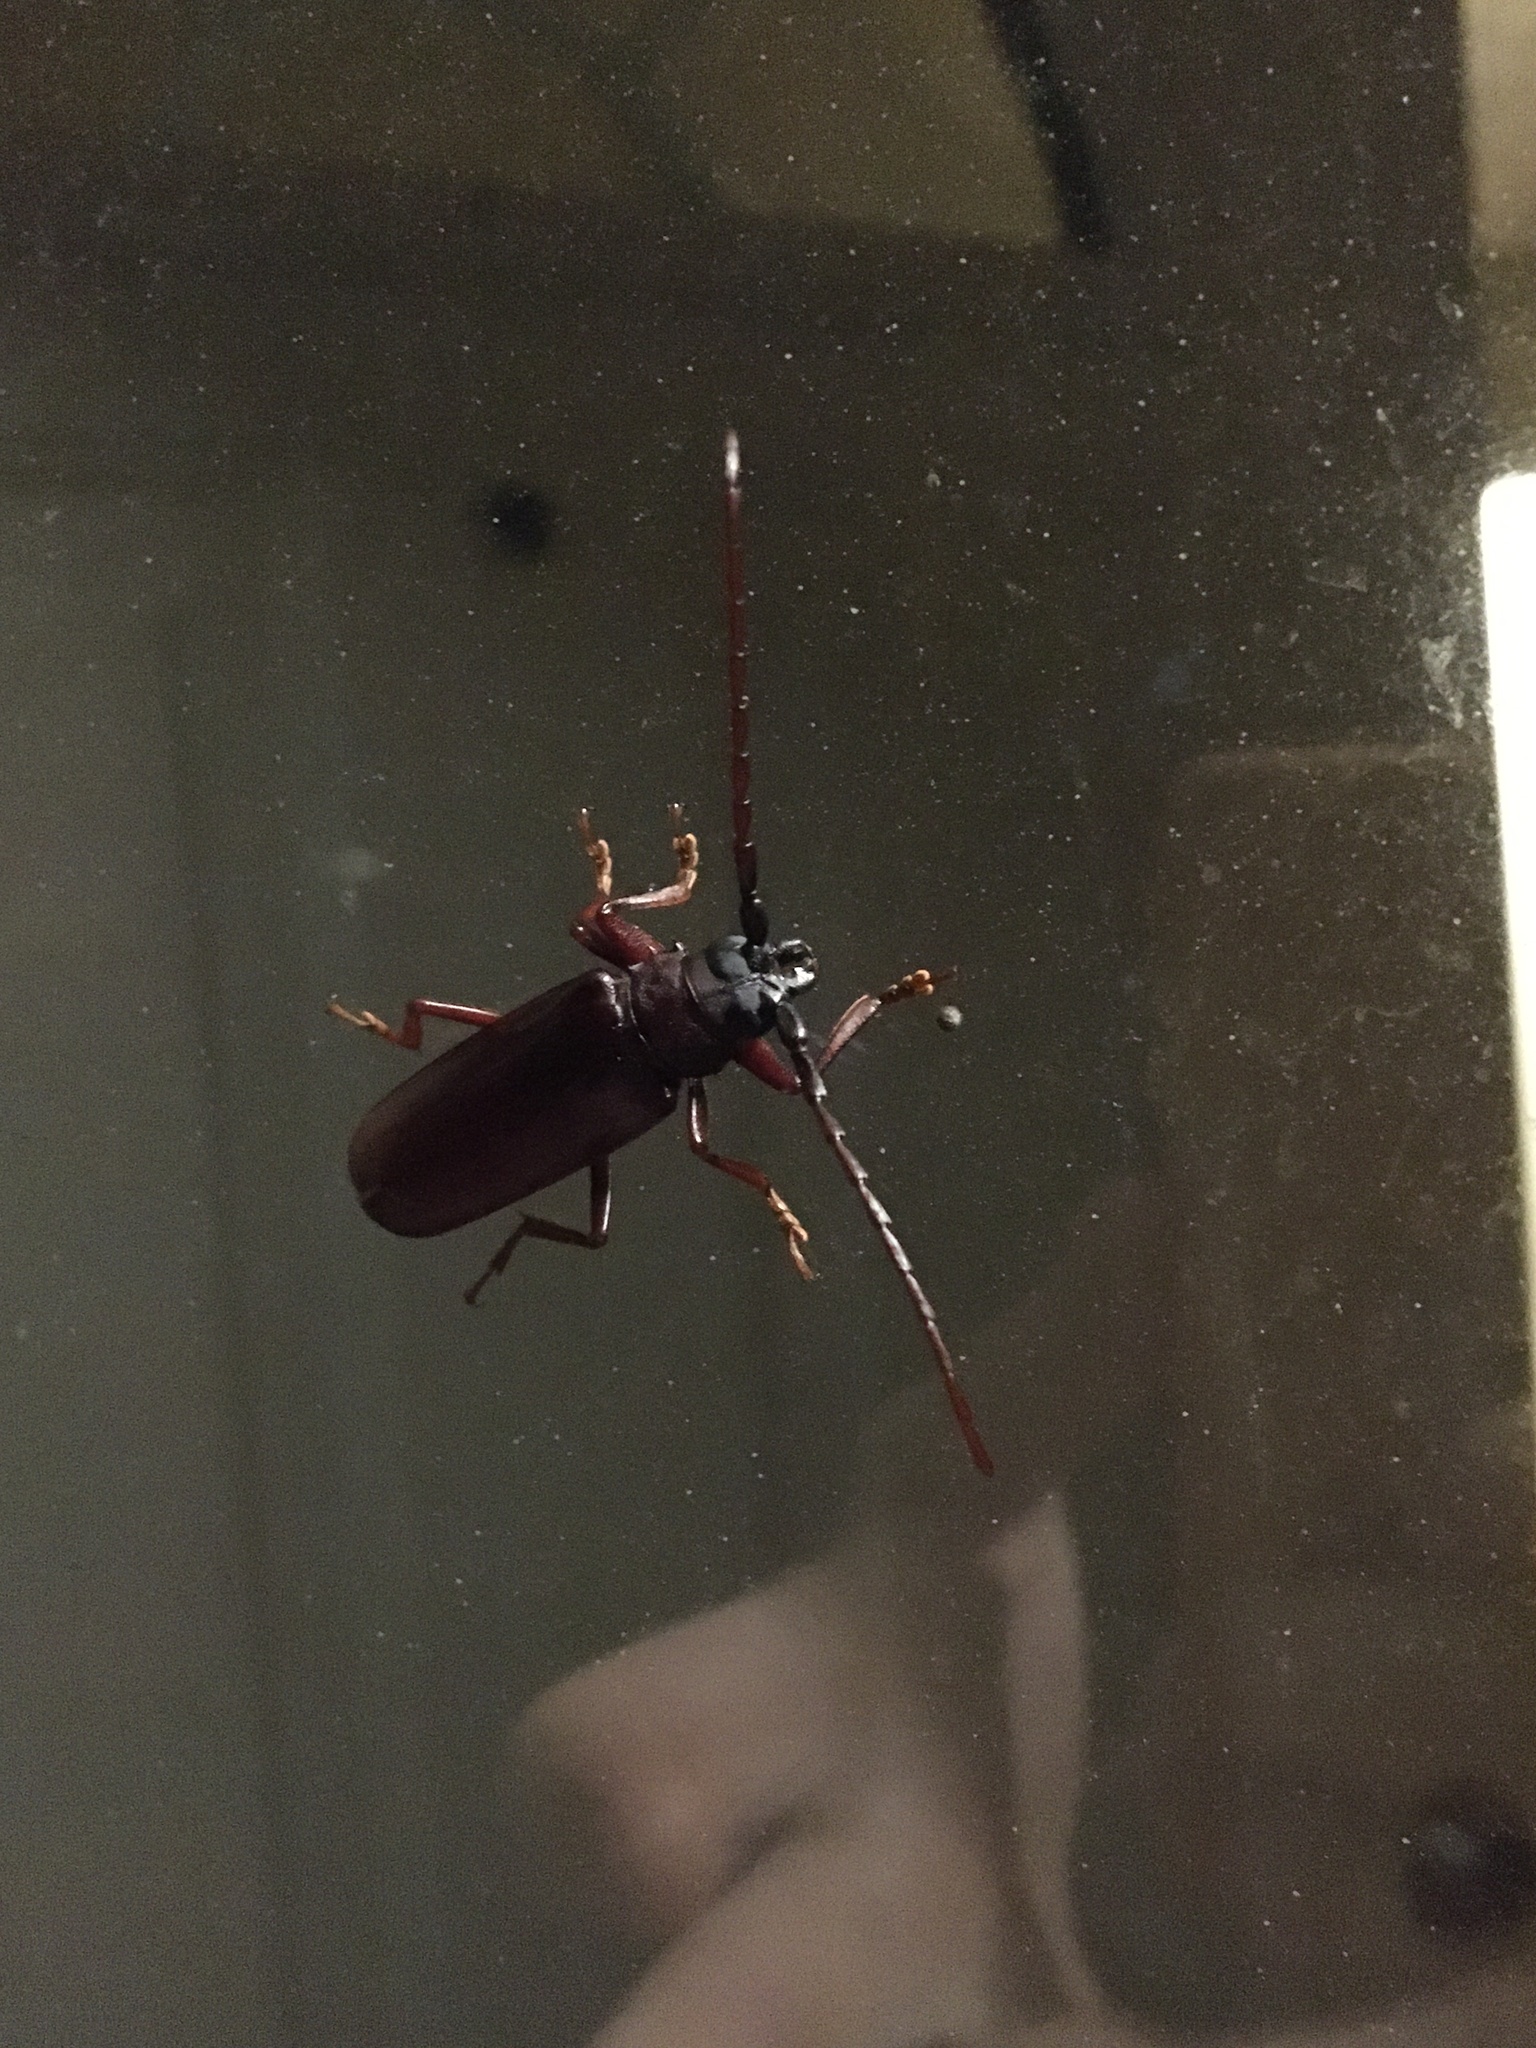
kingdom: Animalia
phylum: Arthropoda
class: Insecta
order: Coleoptera
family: Cerambycidae
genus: Orthosoma
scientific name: Orthosoma brunneum
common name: Brown prionid beetle
